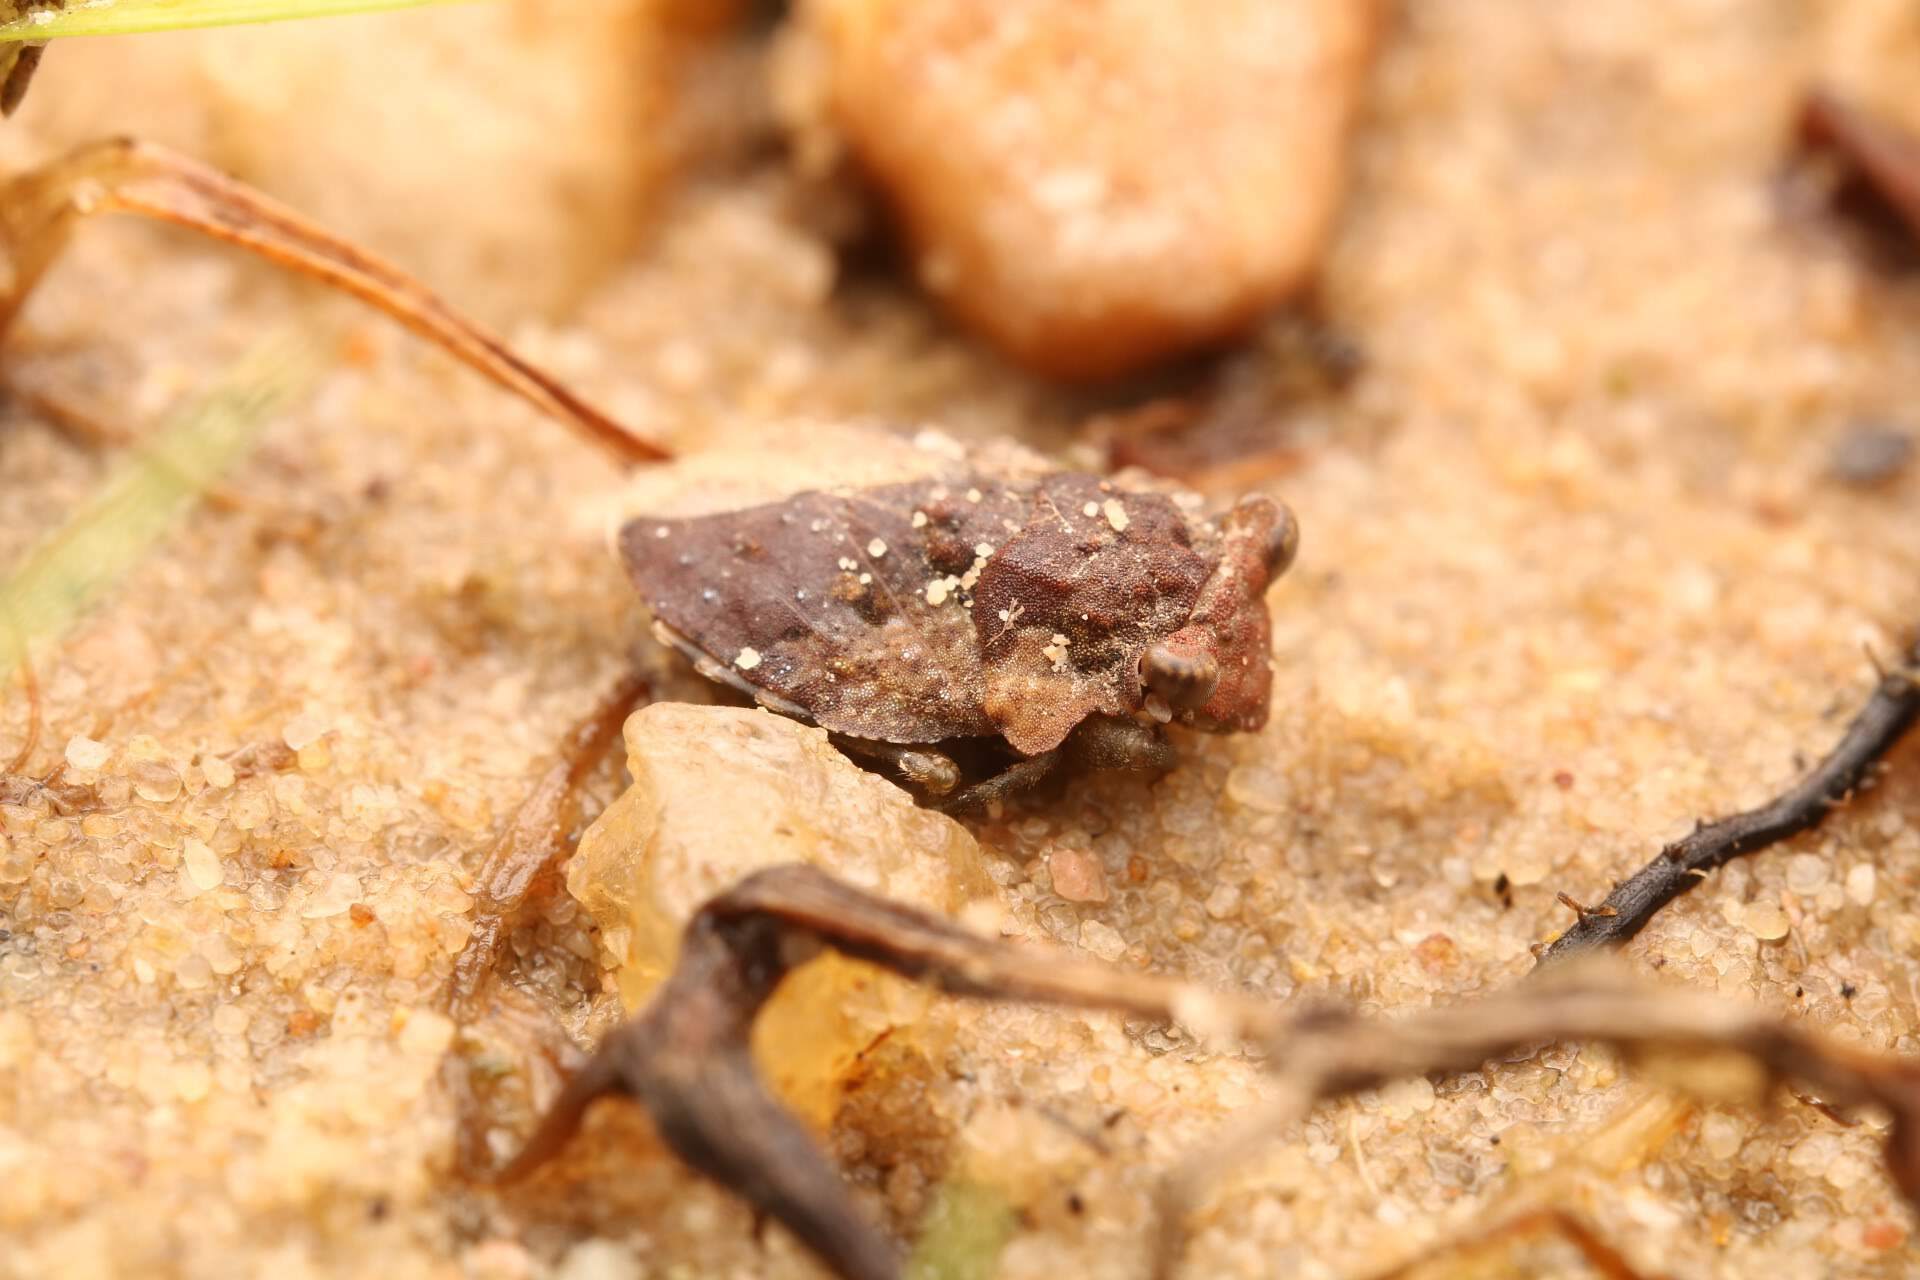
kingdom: Animalia
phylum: Arthropoda
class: Insecta
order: Hemiptera
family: Gelastocoridae
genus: Gelastocoris
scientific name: Gelastocoris oculatus
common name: Toad bug
